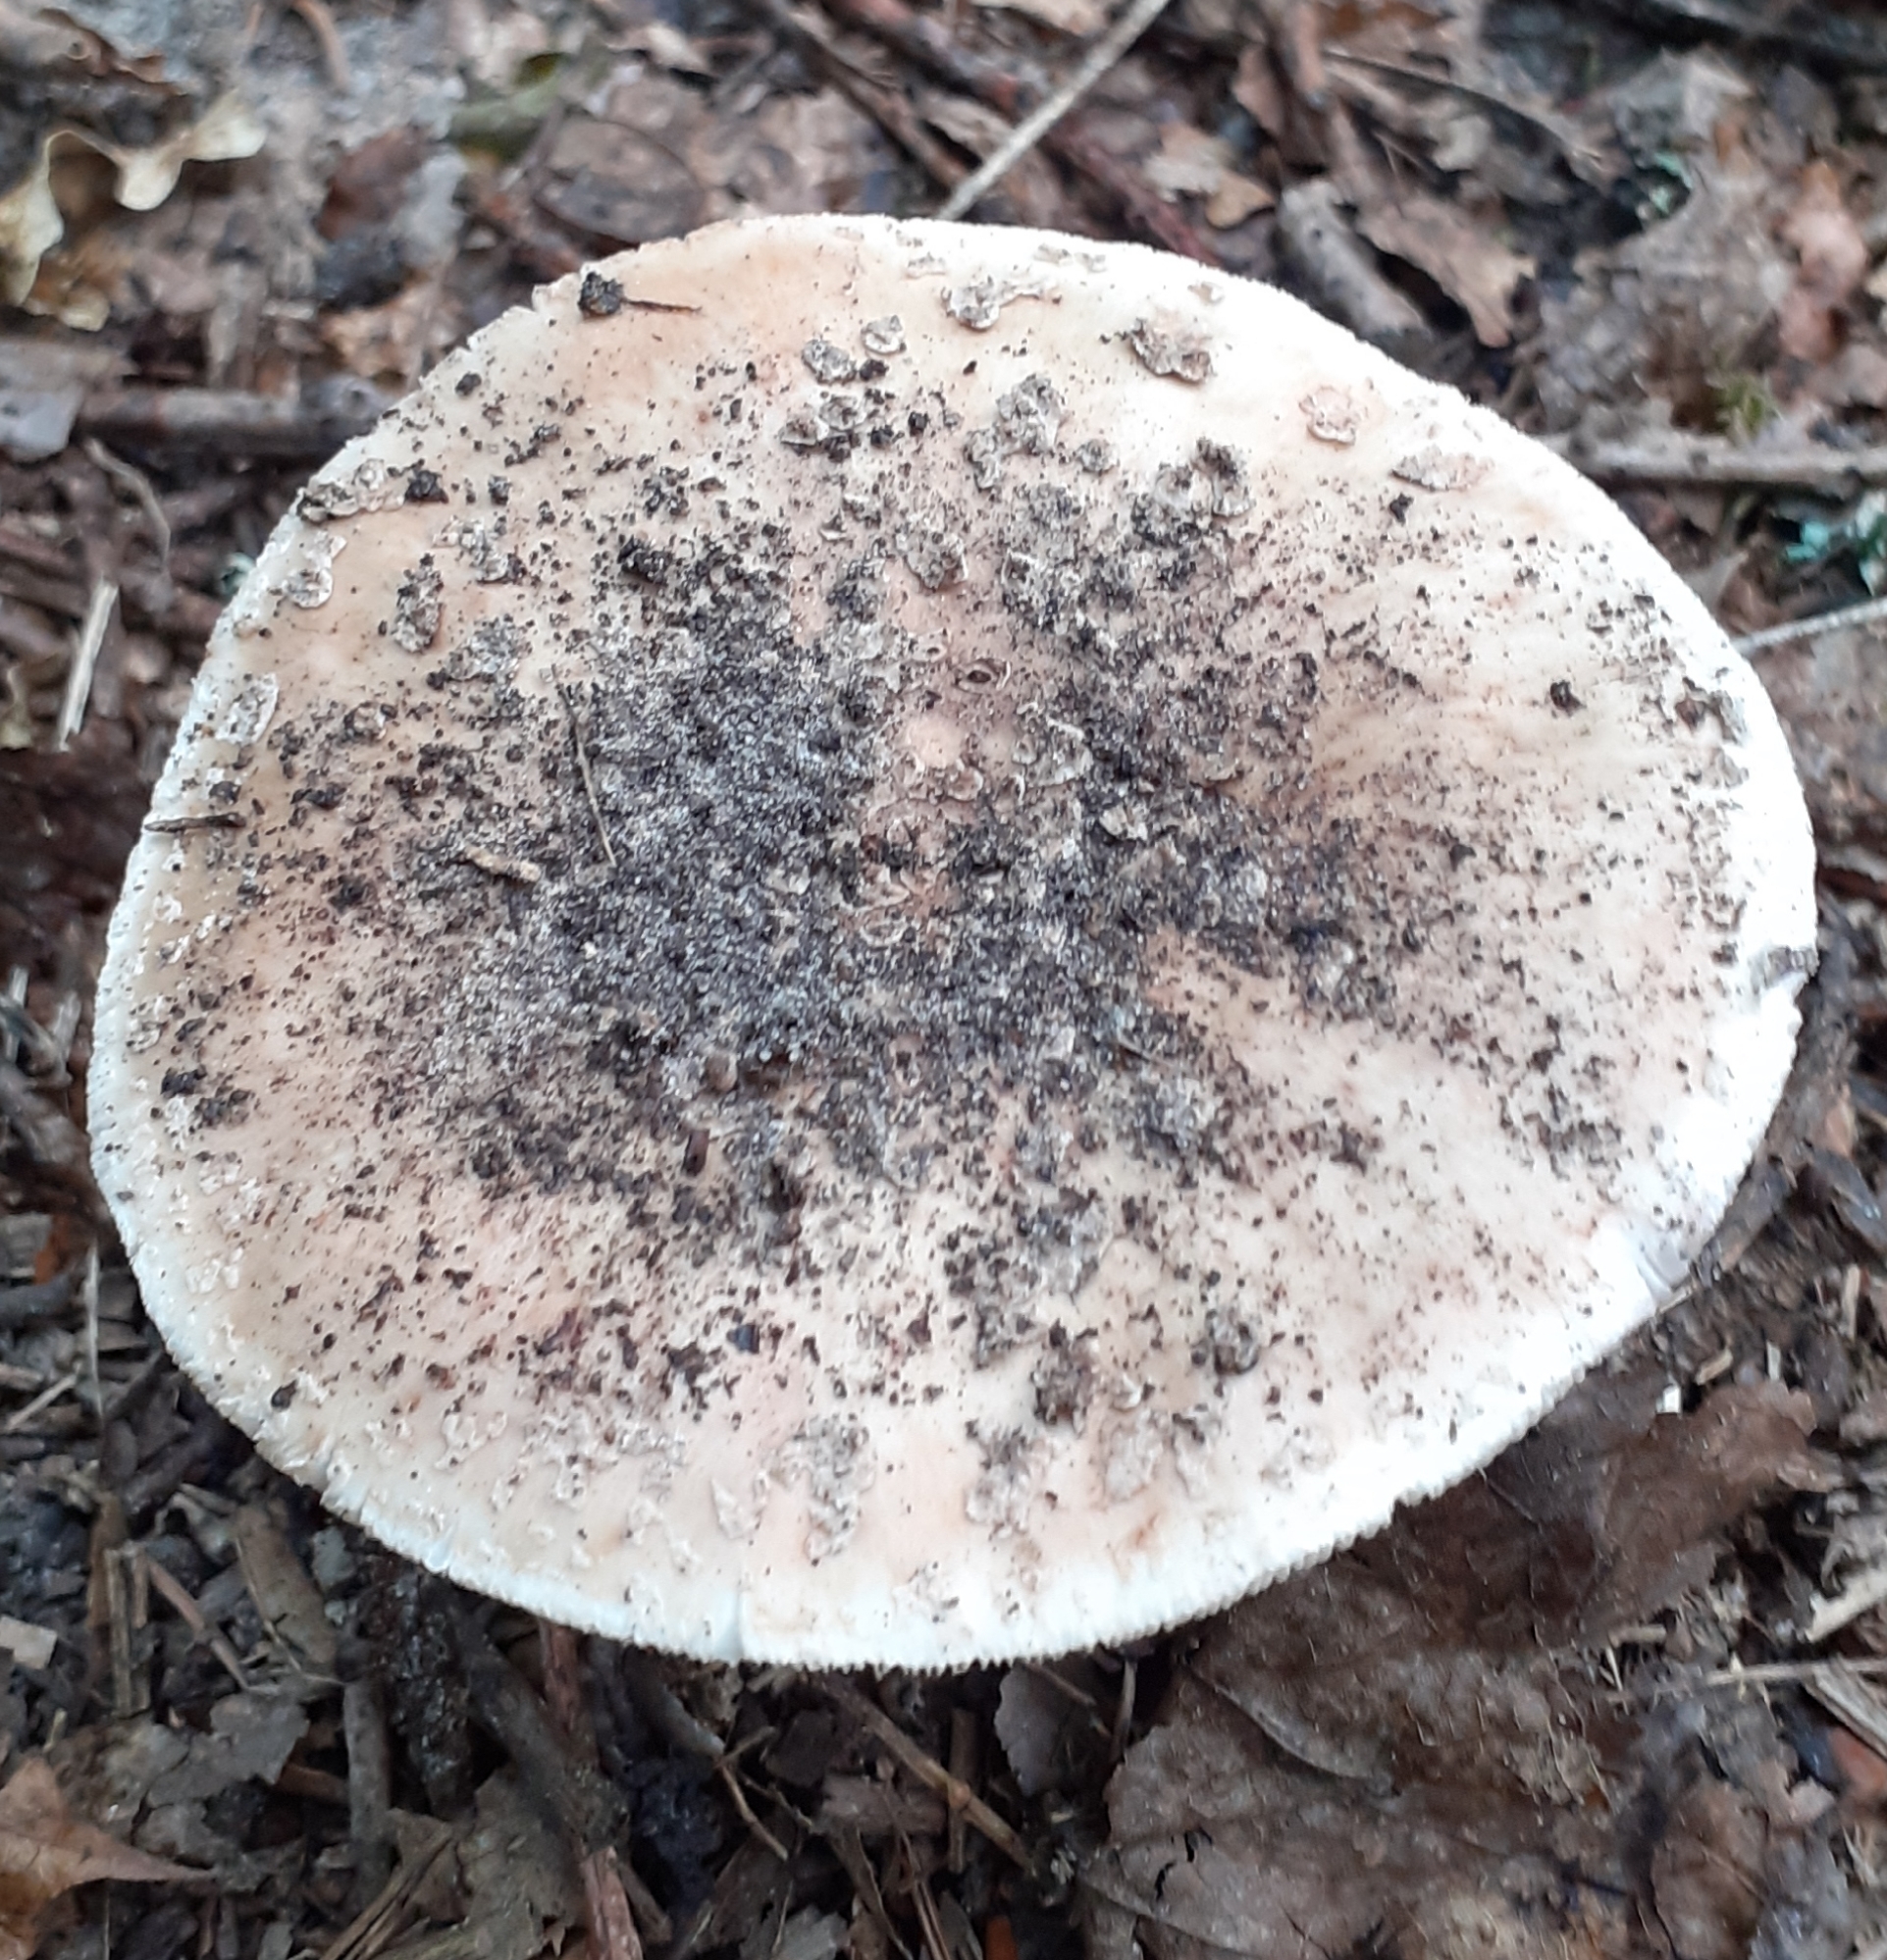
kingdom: Fungi
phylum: Basidiomycota
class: Agaricomycetes
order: Agaricales
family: Amanitaceae
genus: Amanita
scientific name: Amanita rubescens
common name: Blusher
